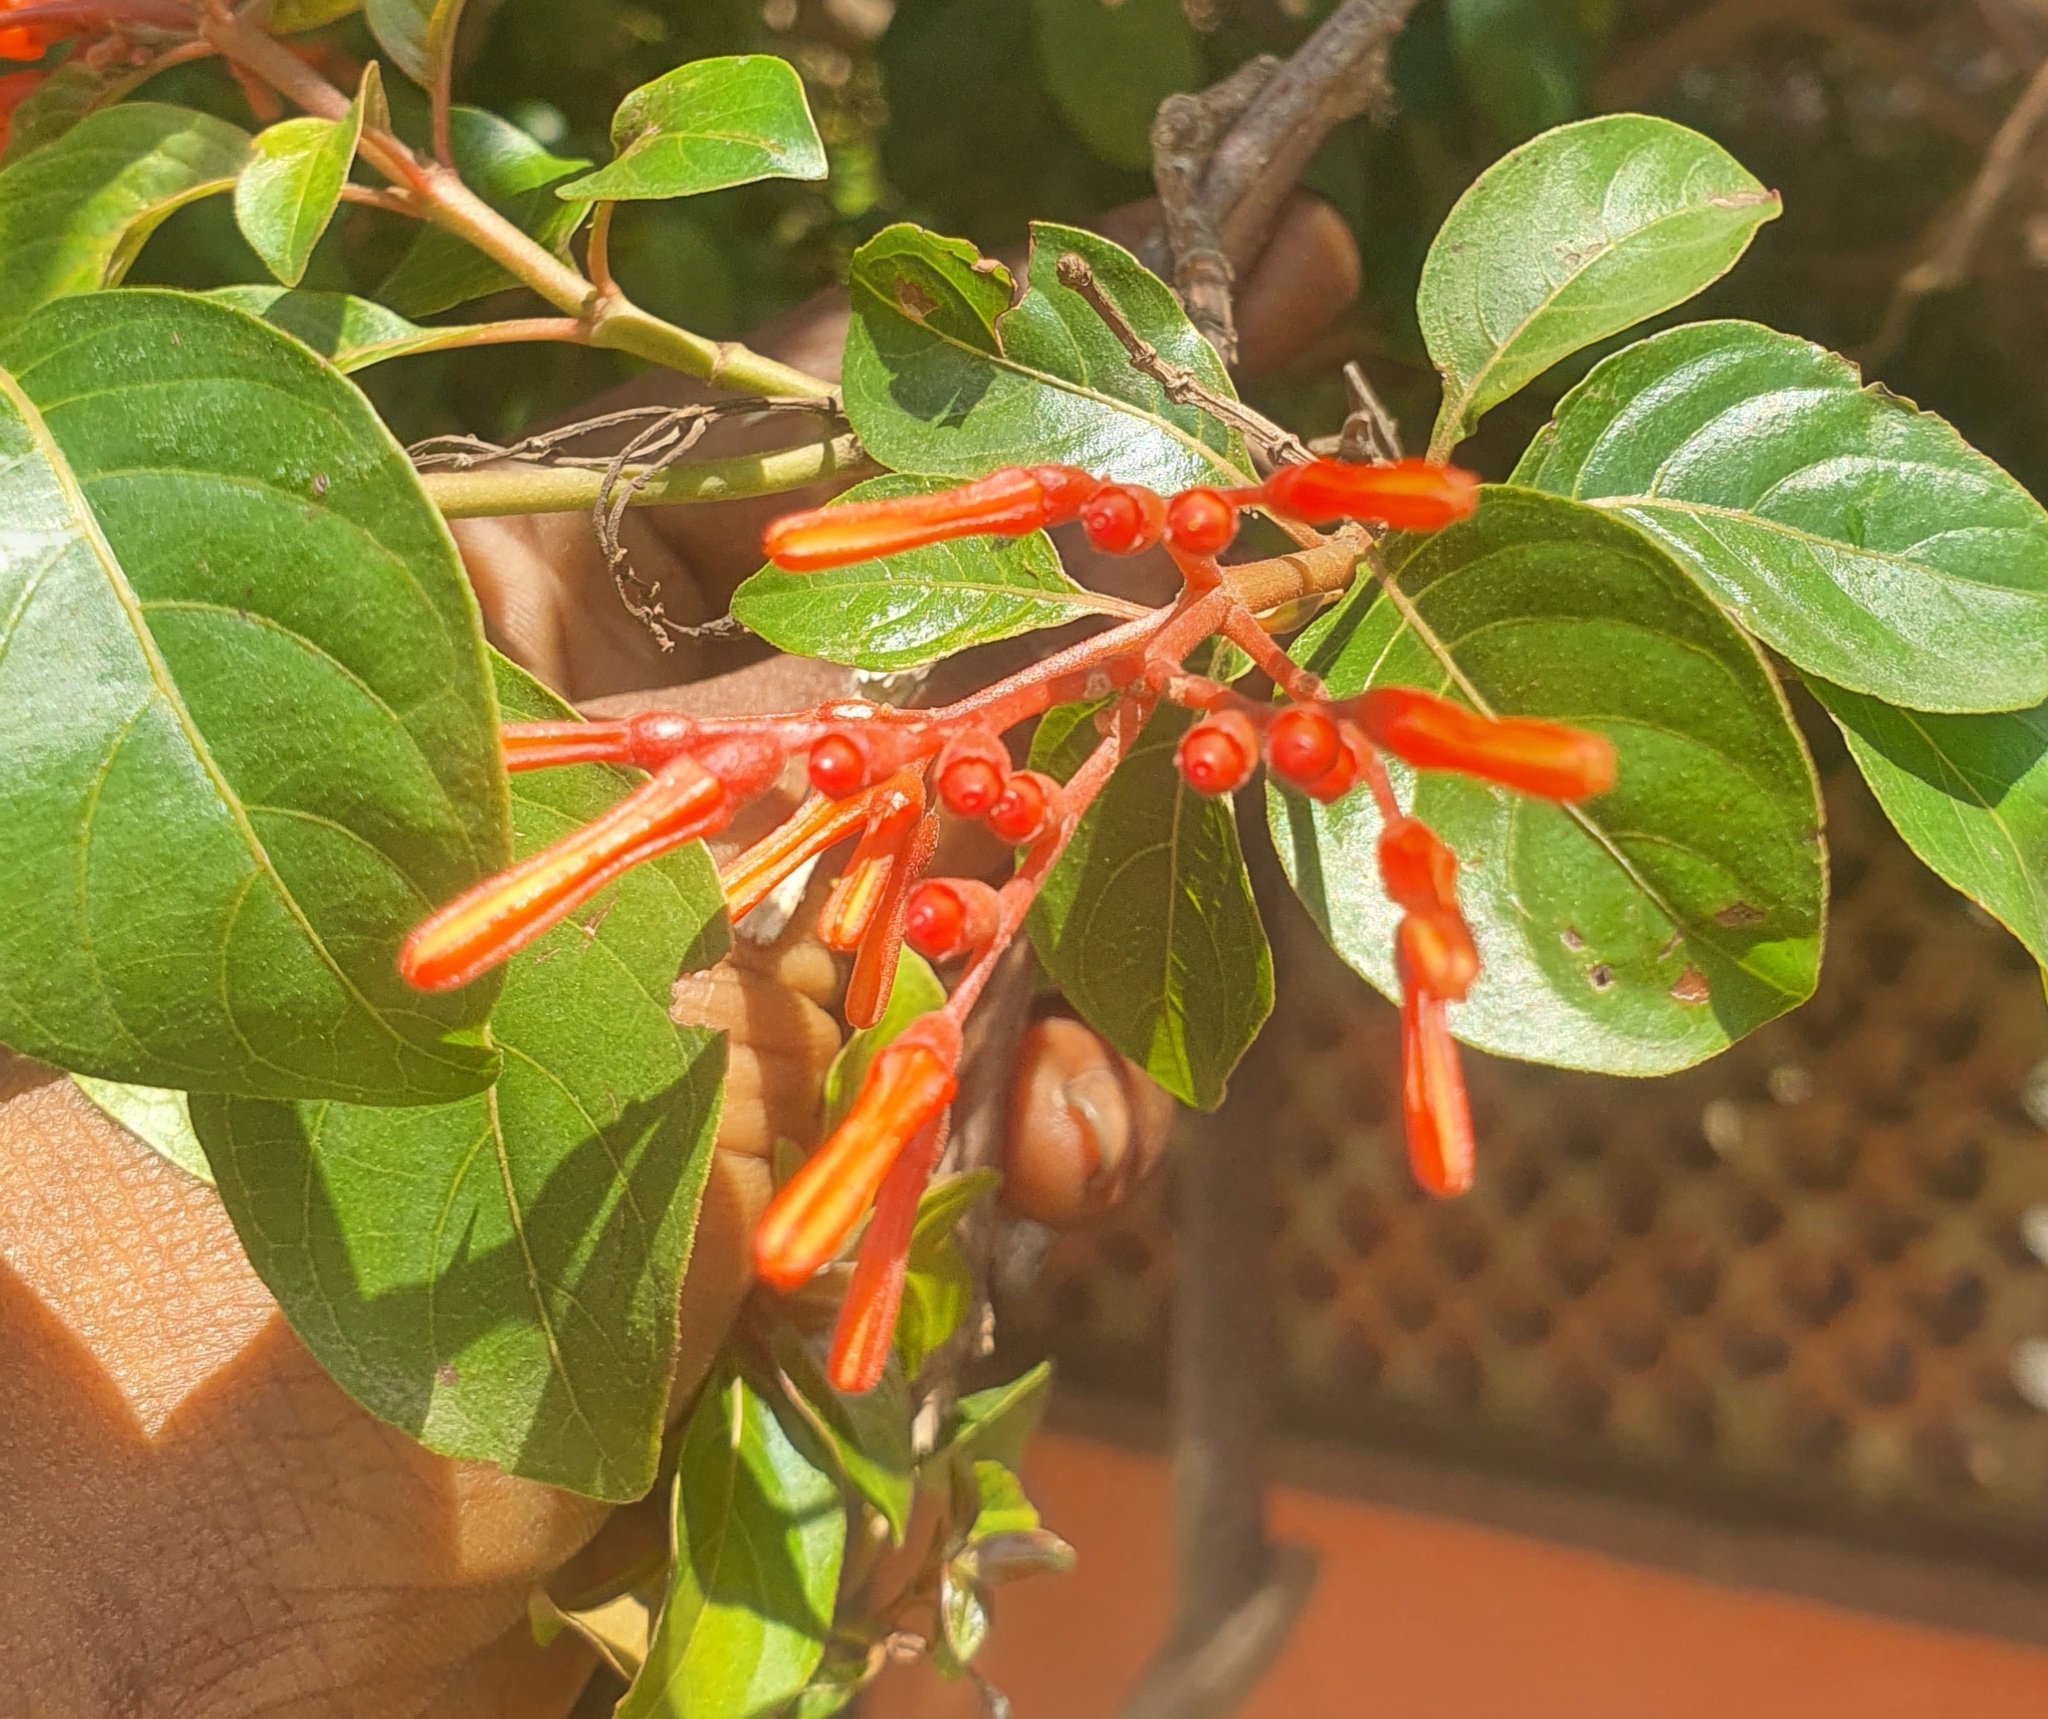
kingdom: Plantae
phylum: Tracheophyta
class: Magnoliopsida
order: Gentianales
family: Rubiaceae
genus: Hamelia
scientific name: Hamelia patens
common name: Redhead
